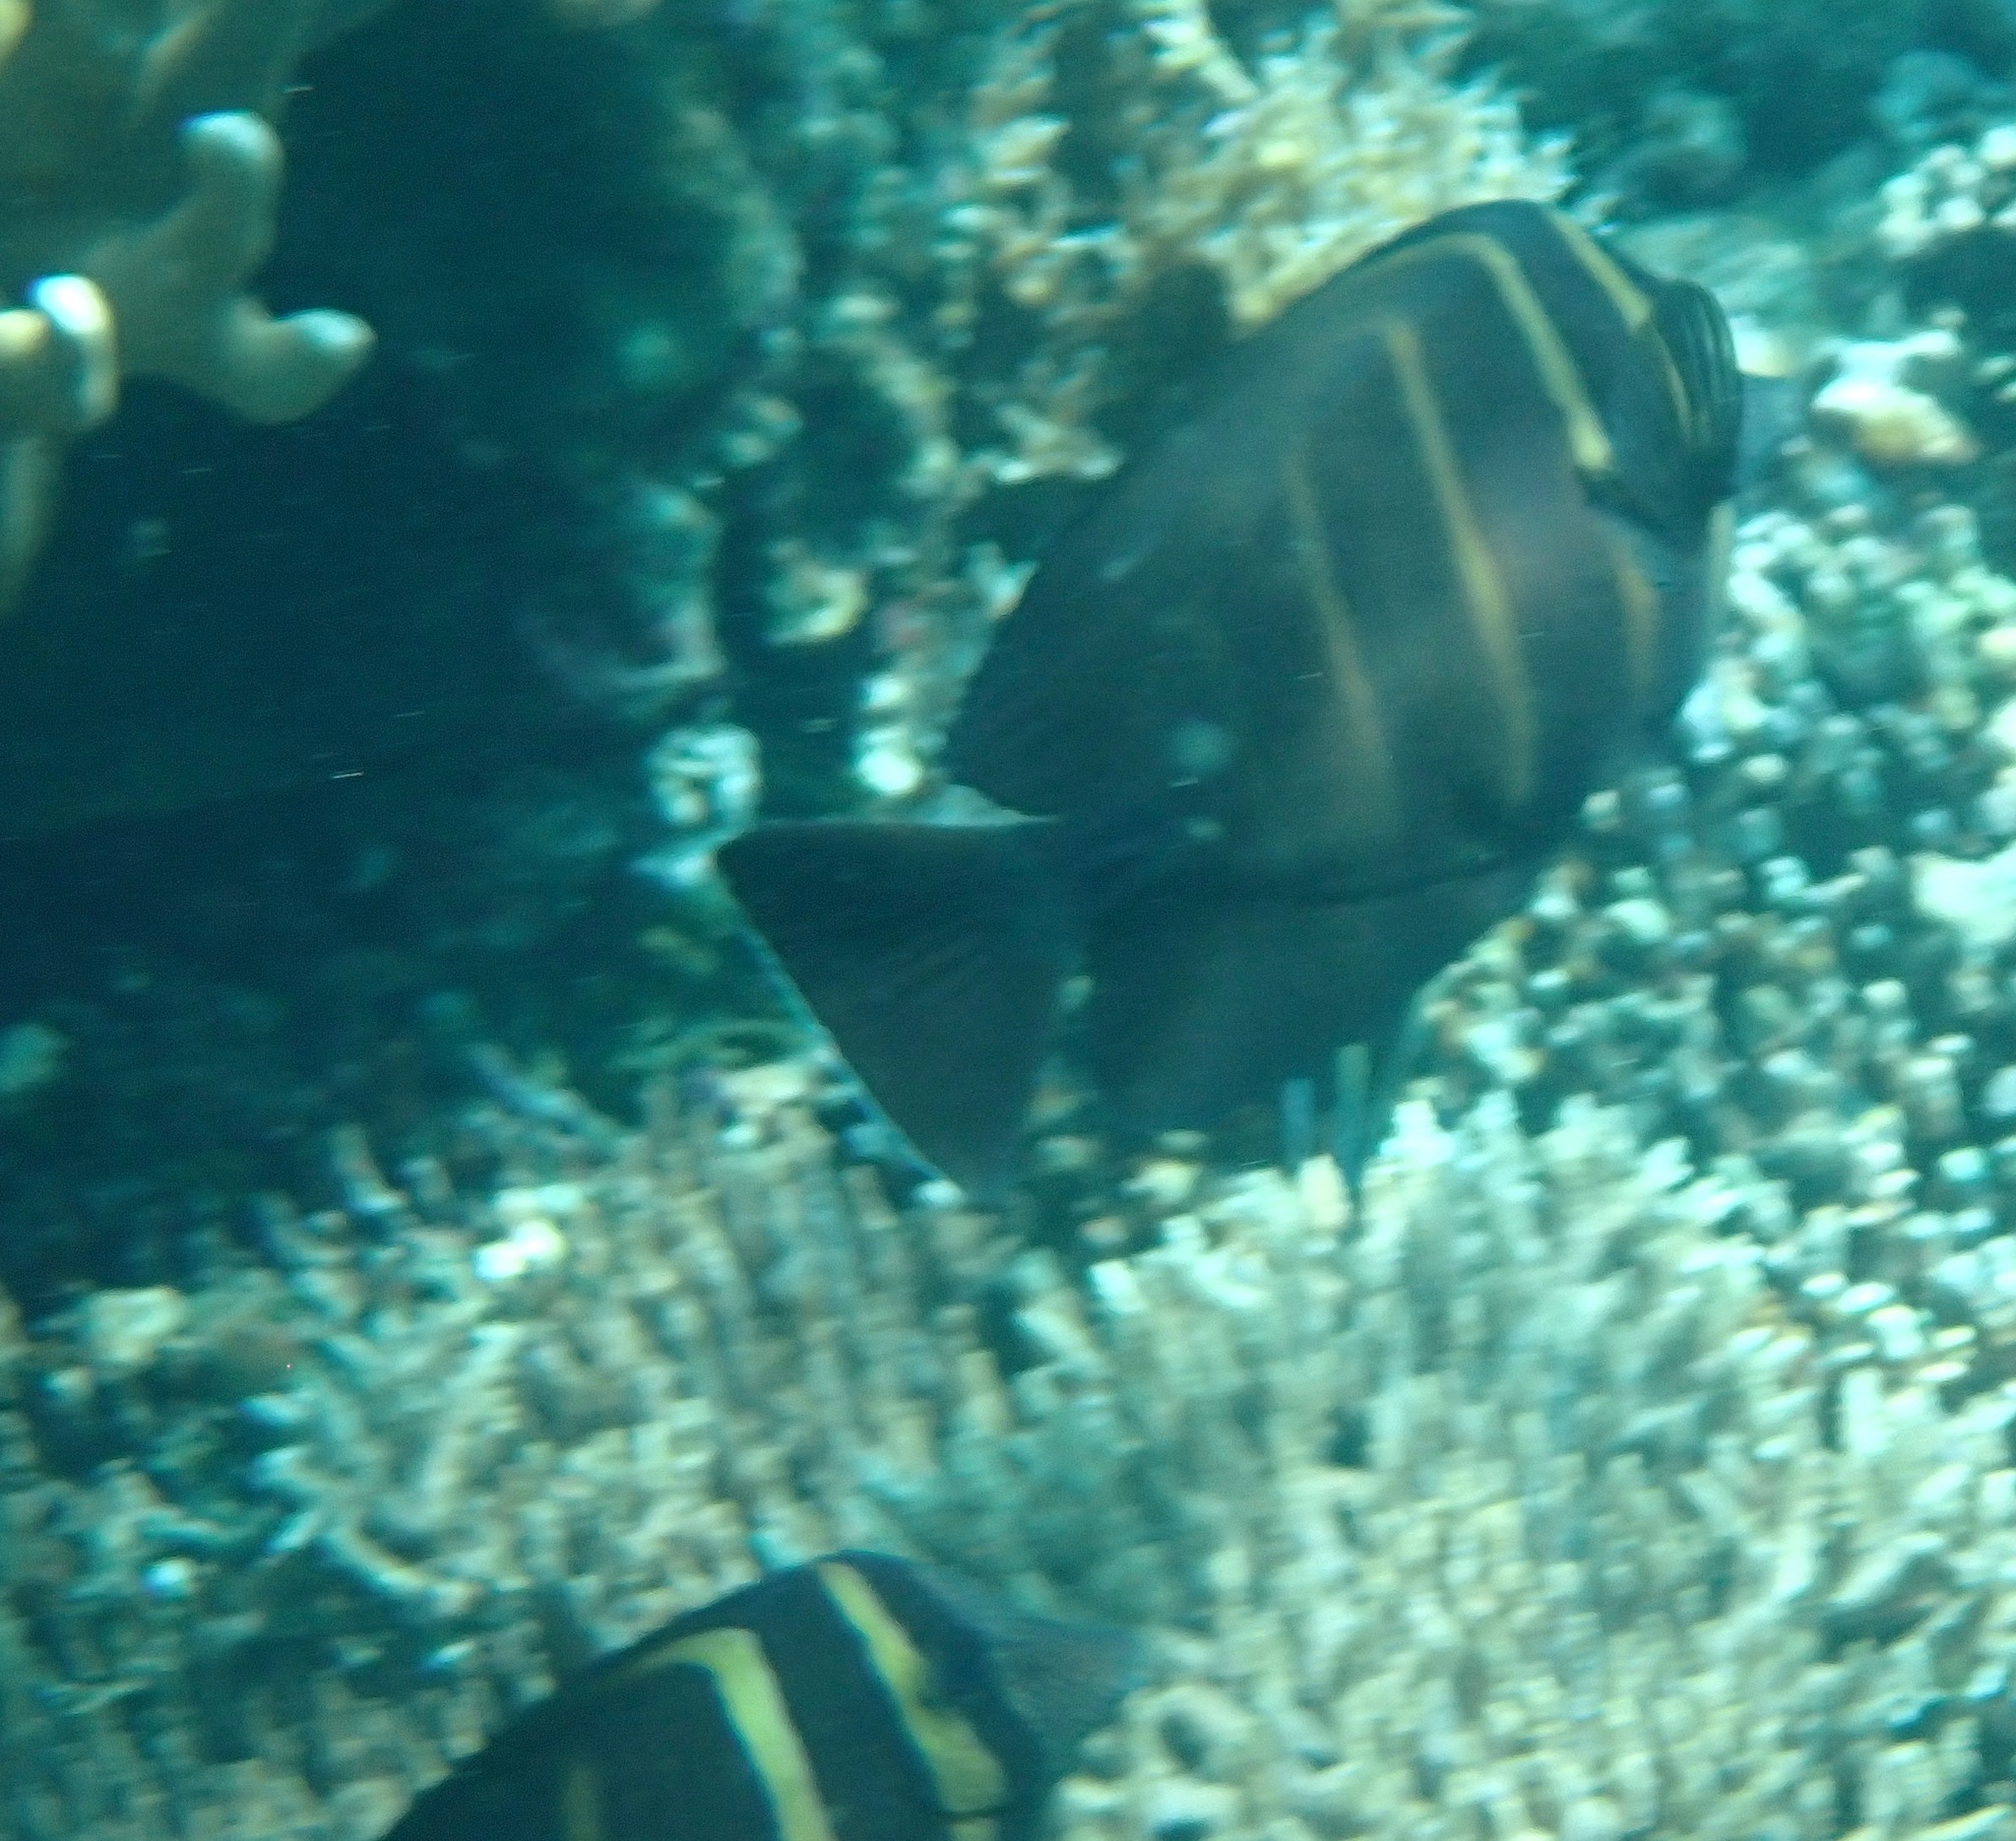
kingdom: Animalia
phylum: Chordata
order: Perciformes
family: Acanthuridae
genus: Zebrasoma
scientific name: Zebrasoma veliferum
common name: Sailfin surgeonfish
